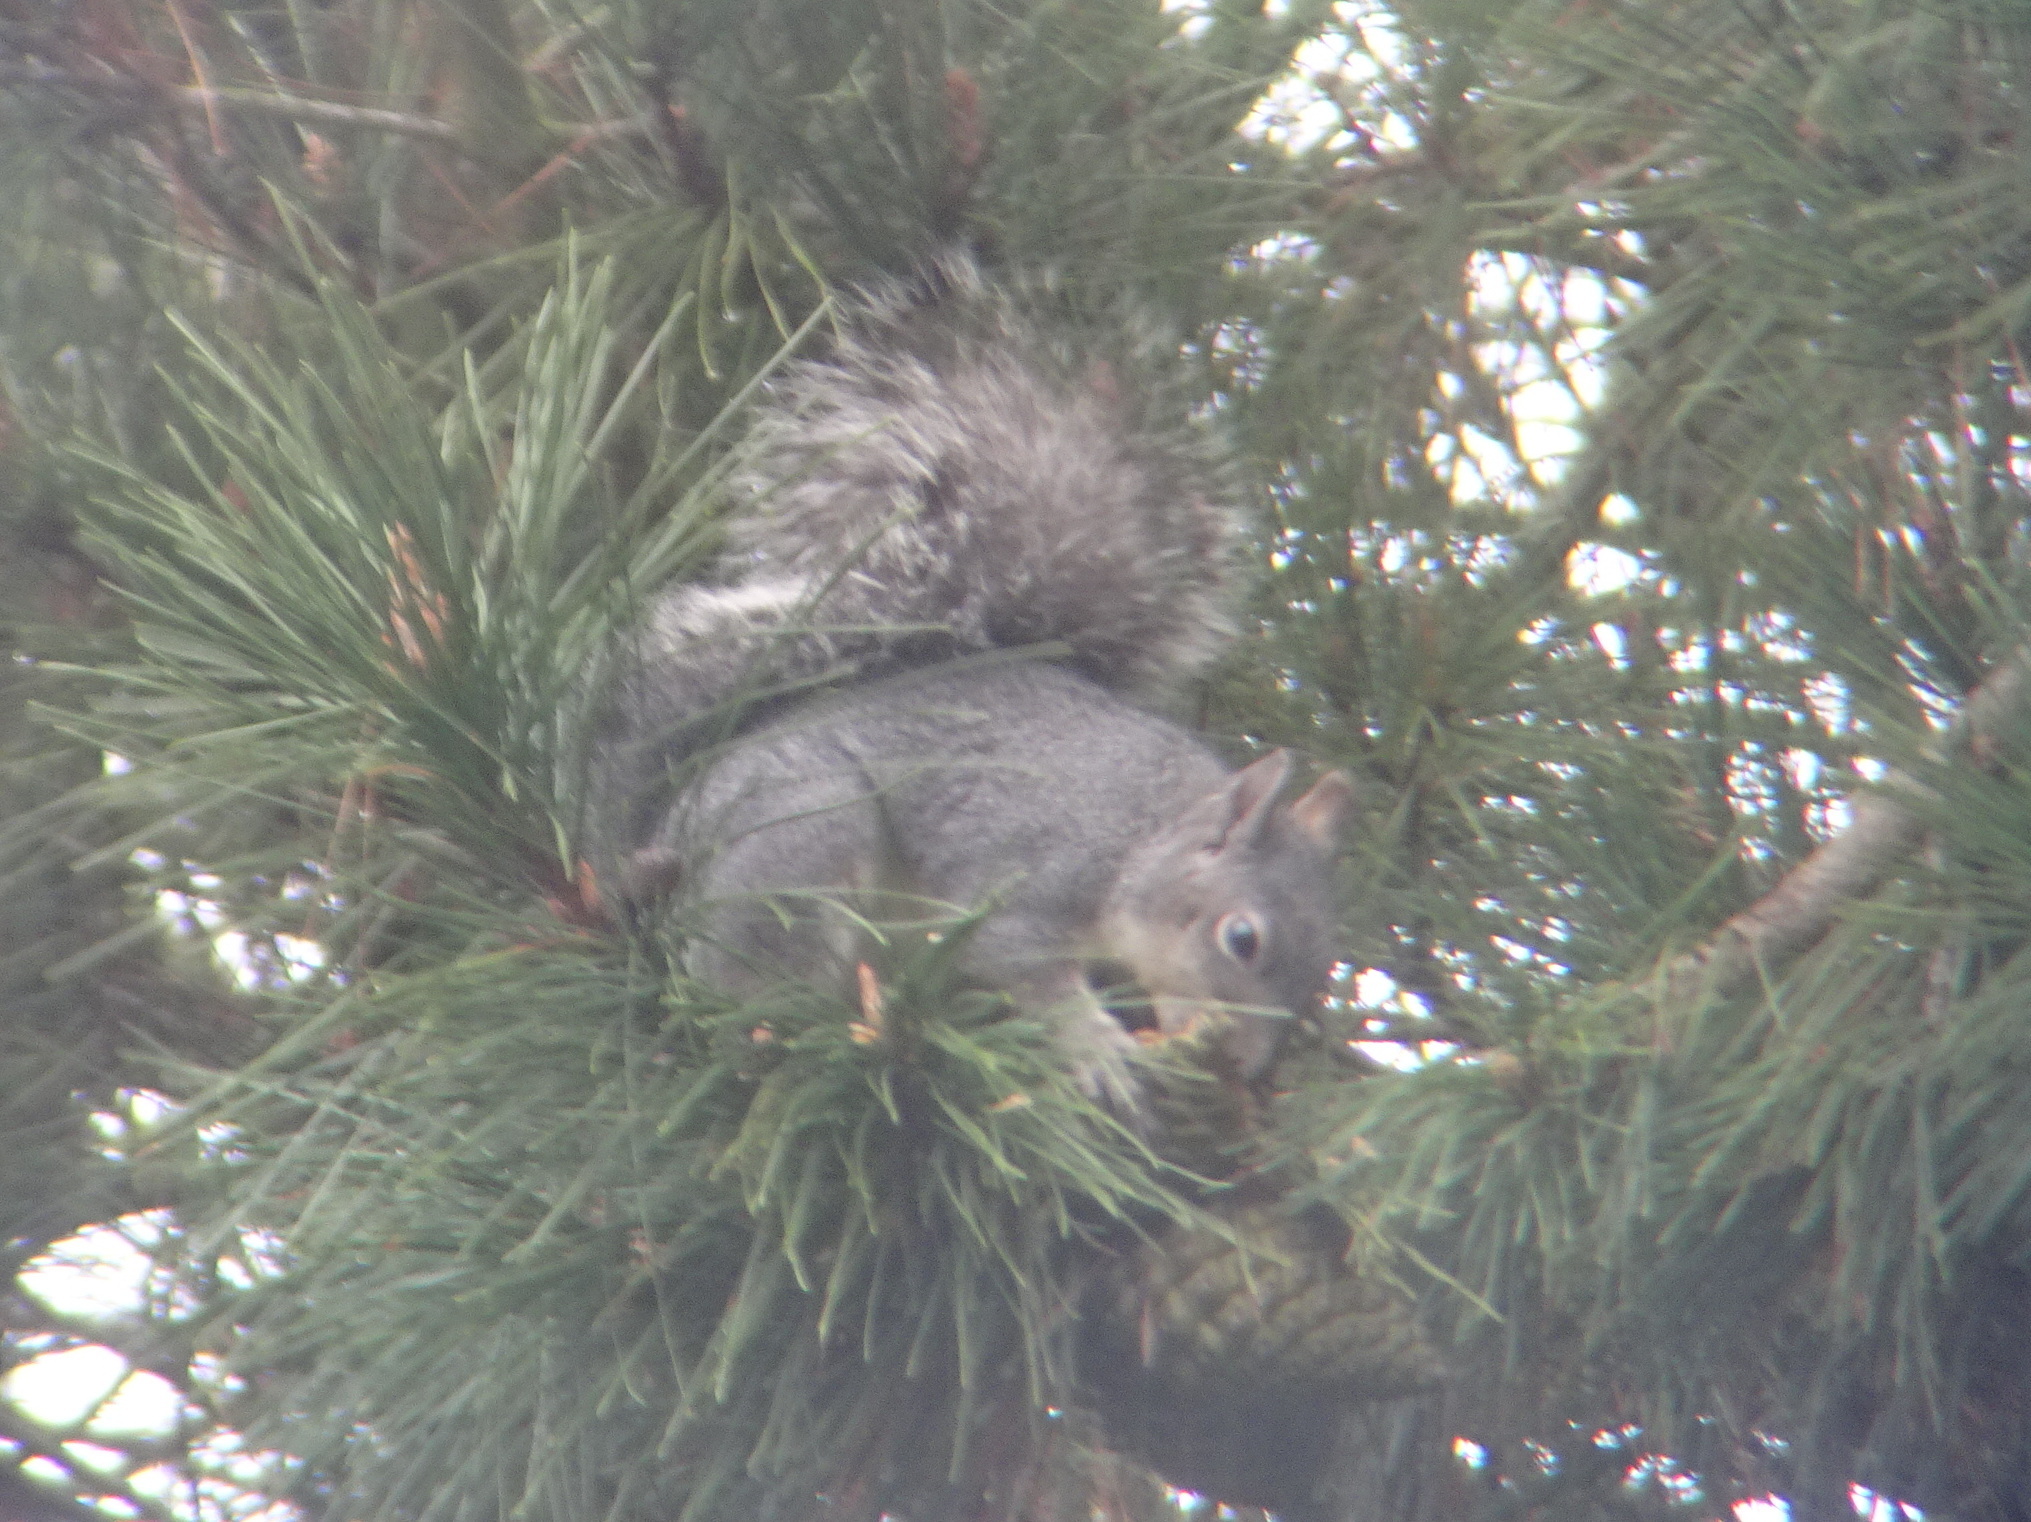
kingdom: Animalia
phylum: Chordata
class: Mammalia
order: Rodentia
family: Sciuridae
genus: Sciurus
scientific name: Sciurus griseus
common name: Western gray squirrel
